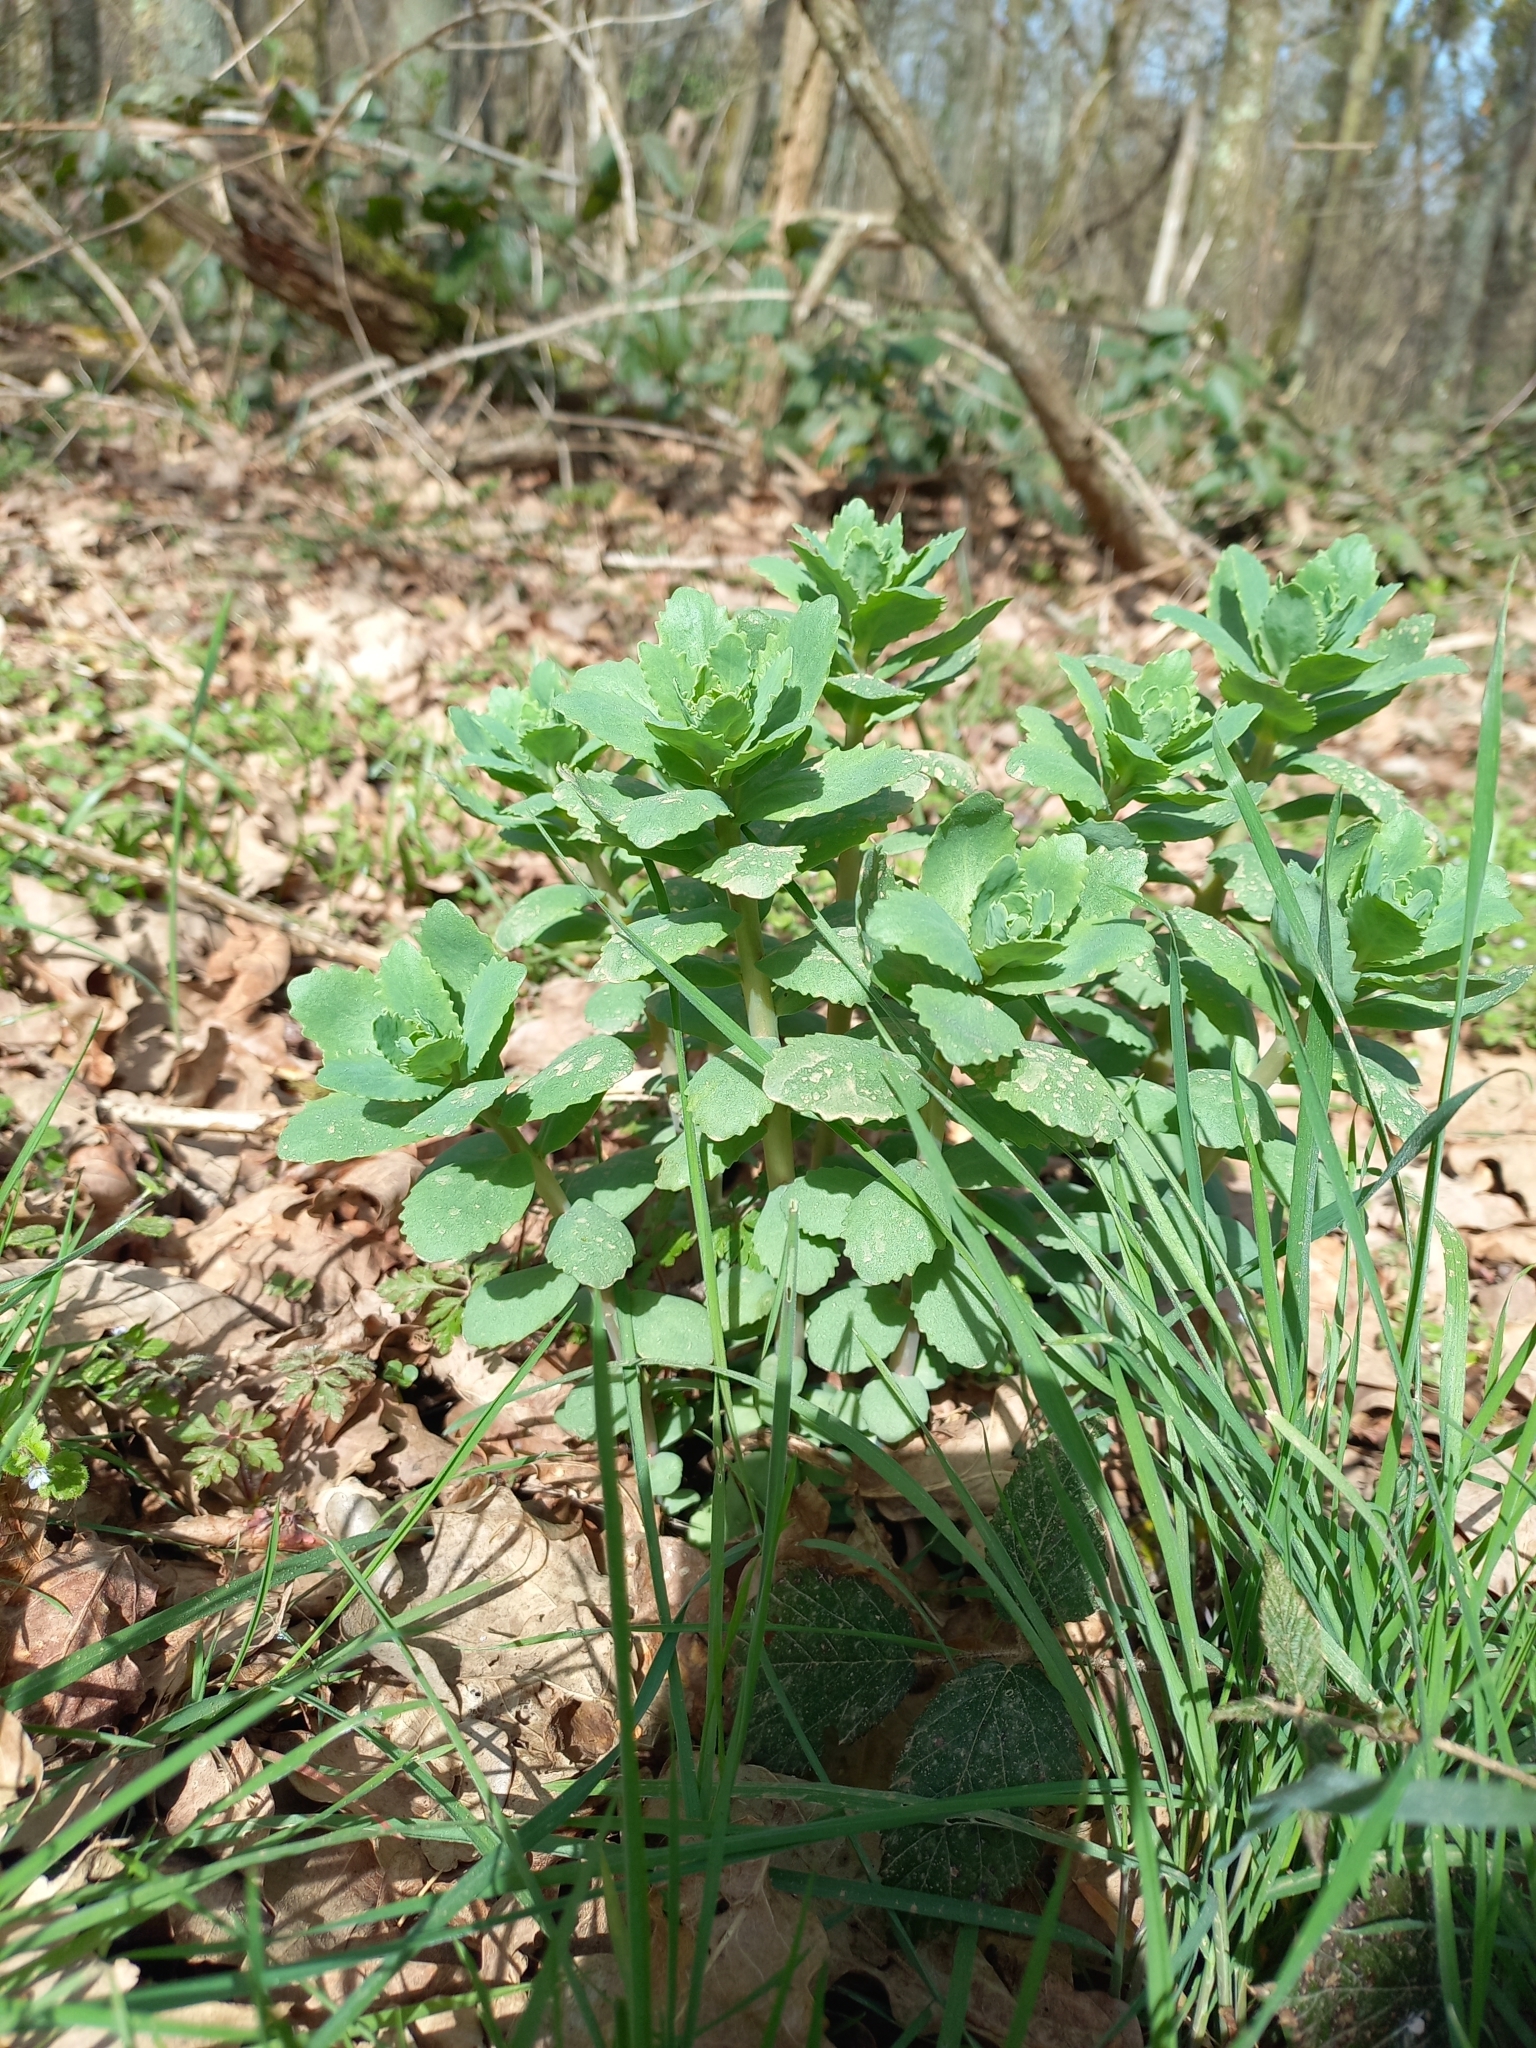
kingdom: Plantae
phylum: Tracheophyta
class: Magnoliopsida
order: Saxifragales
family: Crassulaceae
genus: Hylotelephium
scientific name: Hylotelephium telephium
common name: Live-forever
